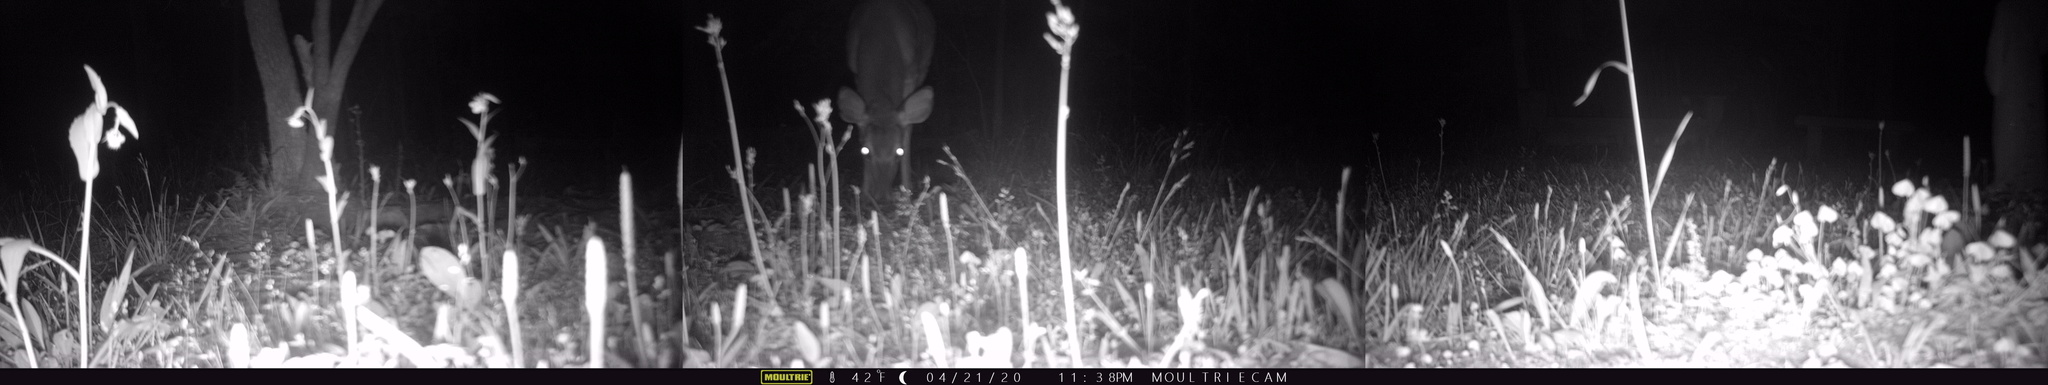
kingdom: Animalia
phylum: Chordata
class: Mammalia
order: Artiodactyla
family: Cervidae
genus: Odocoileus
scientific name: Odocoileus virginianus
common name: White-tailed deer
